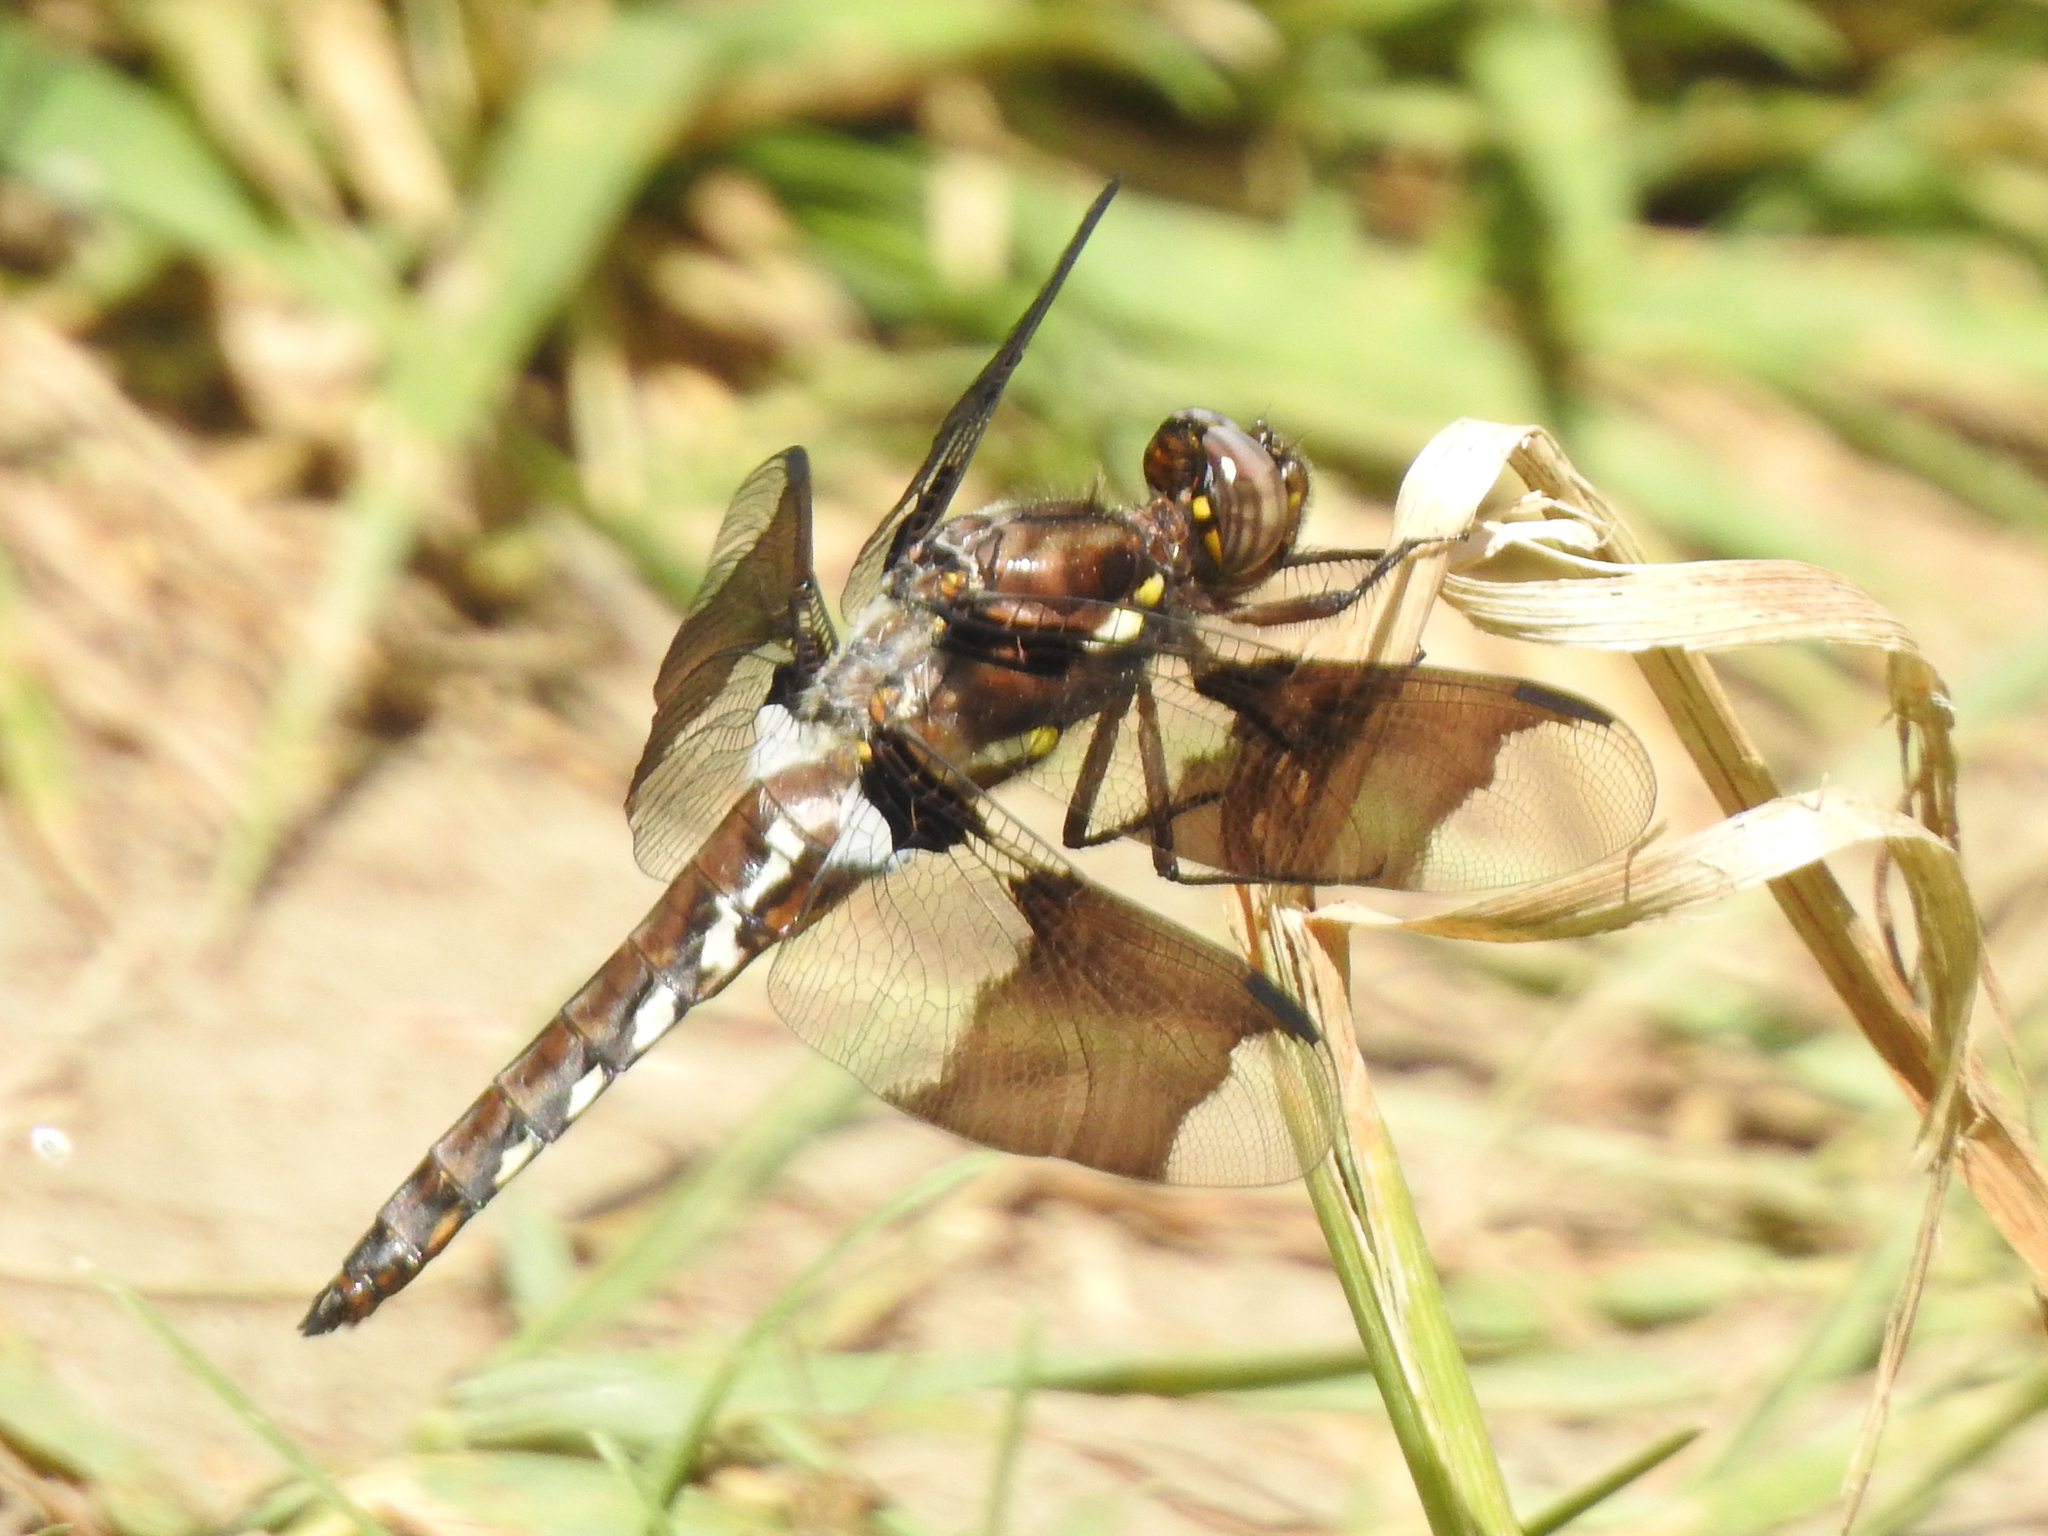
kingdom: Animalia
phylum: Arthropoda
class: Insecta
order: Odonata
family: Libellulidae
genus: Plathemis
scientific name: Plathemis lydia
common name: Common whitetail
